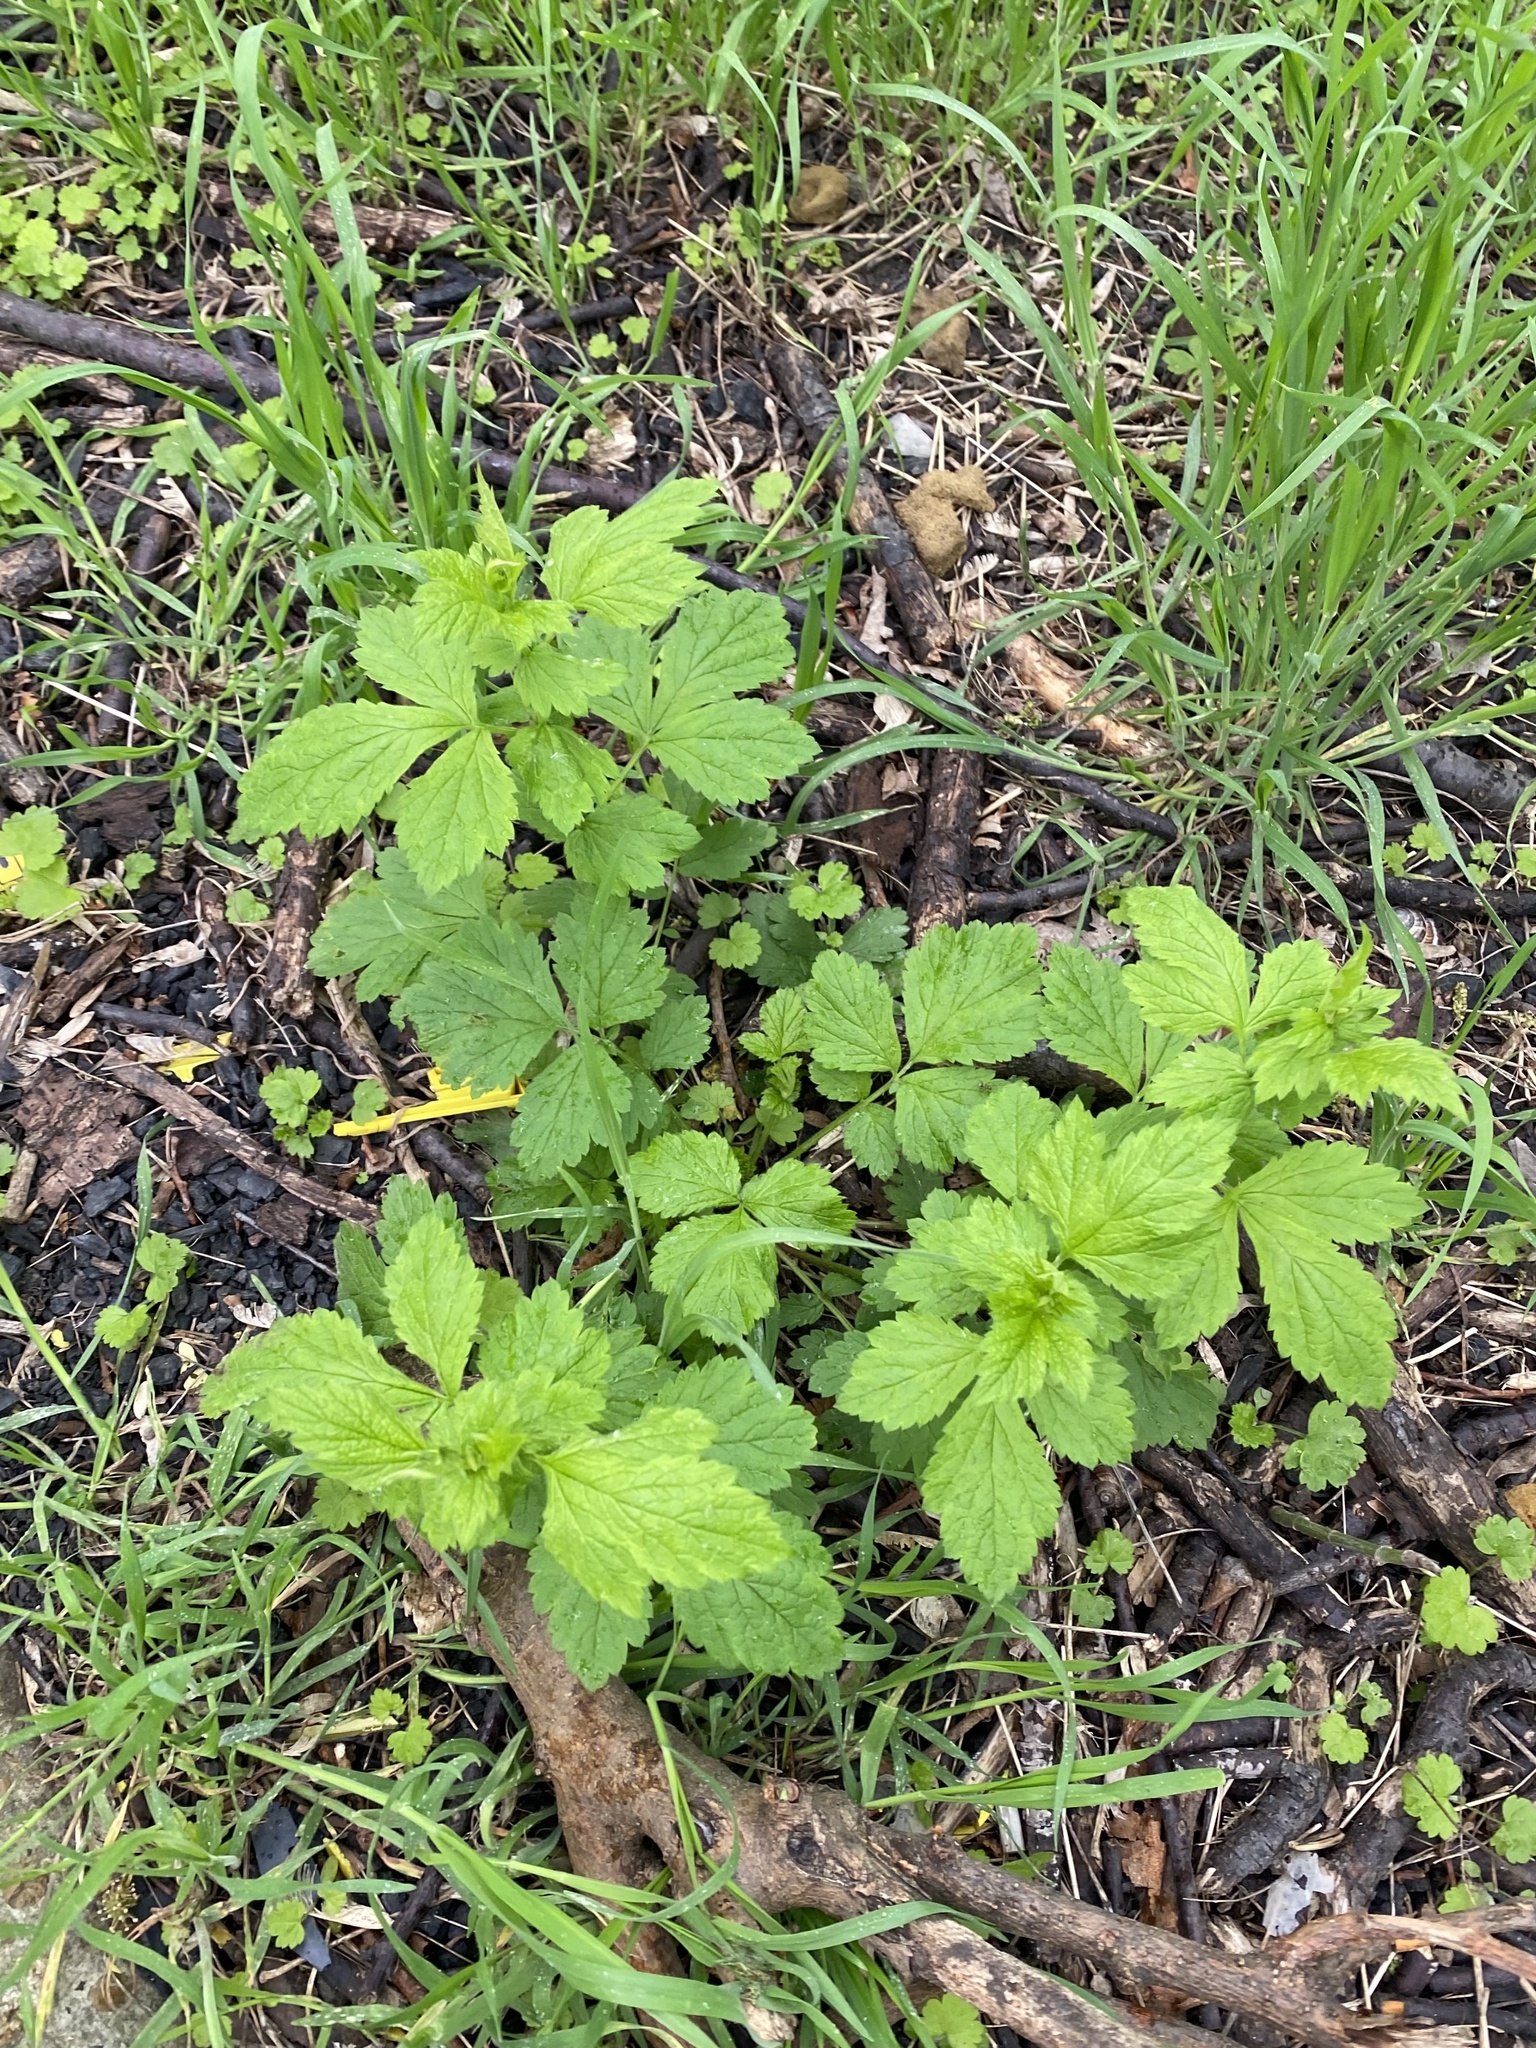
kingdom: Plantae
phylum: Tracheophyta
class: Magnoliopsida
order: Rosales
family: Rosaceae
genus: Geum
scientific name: Geum urbanum
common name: Wood avens
